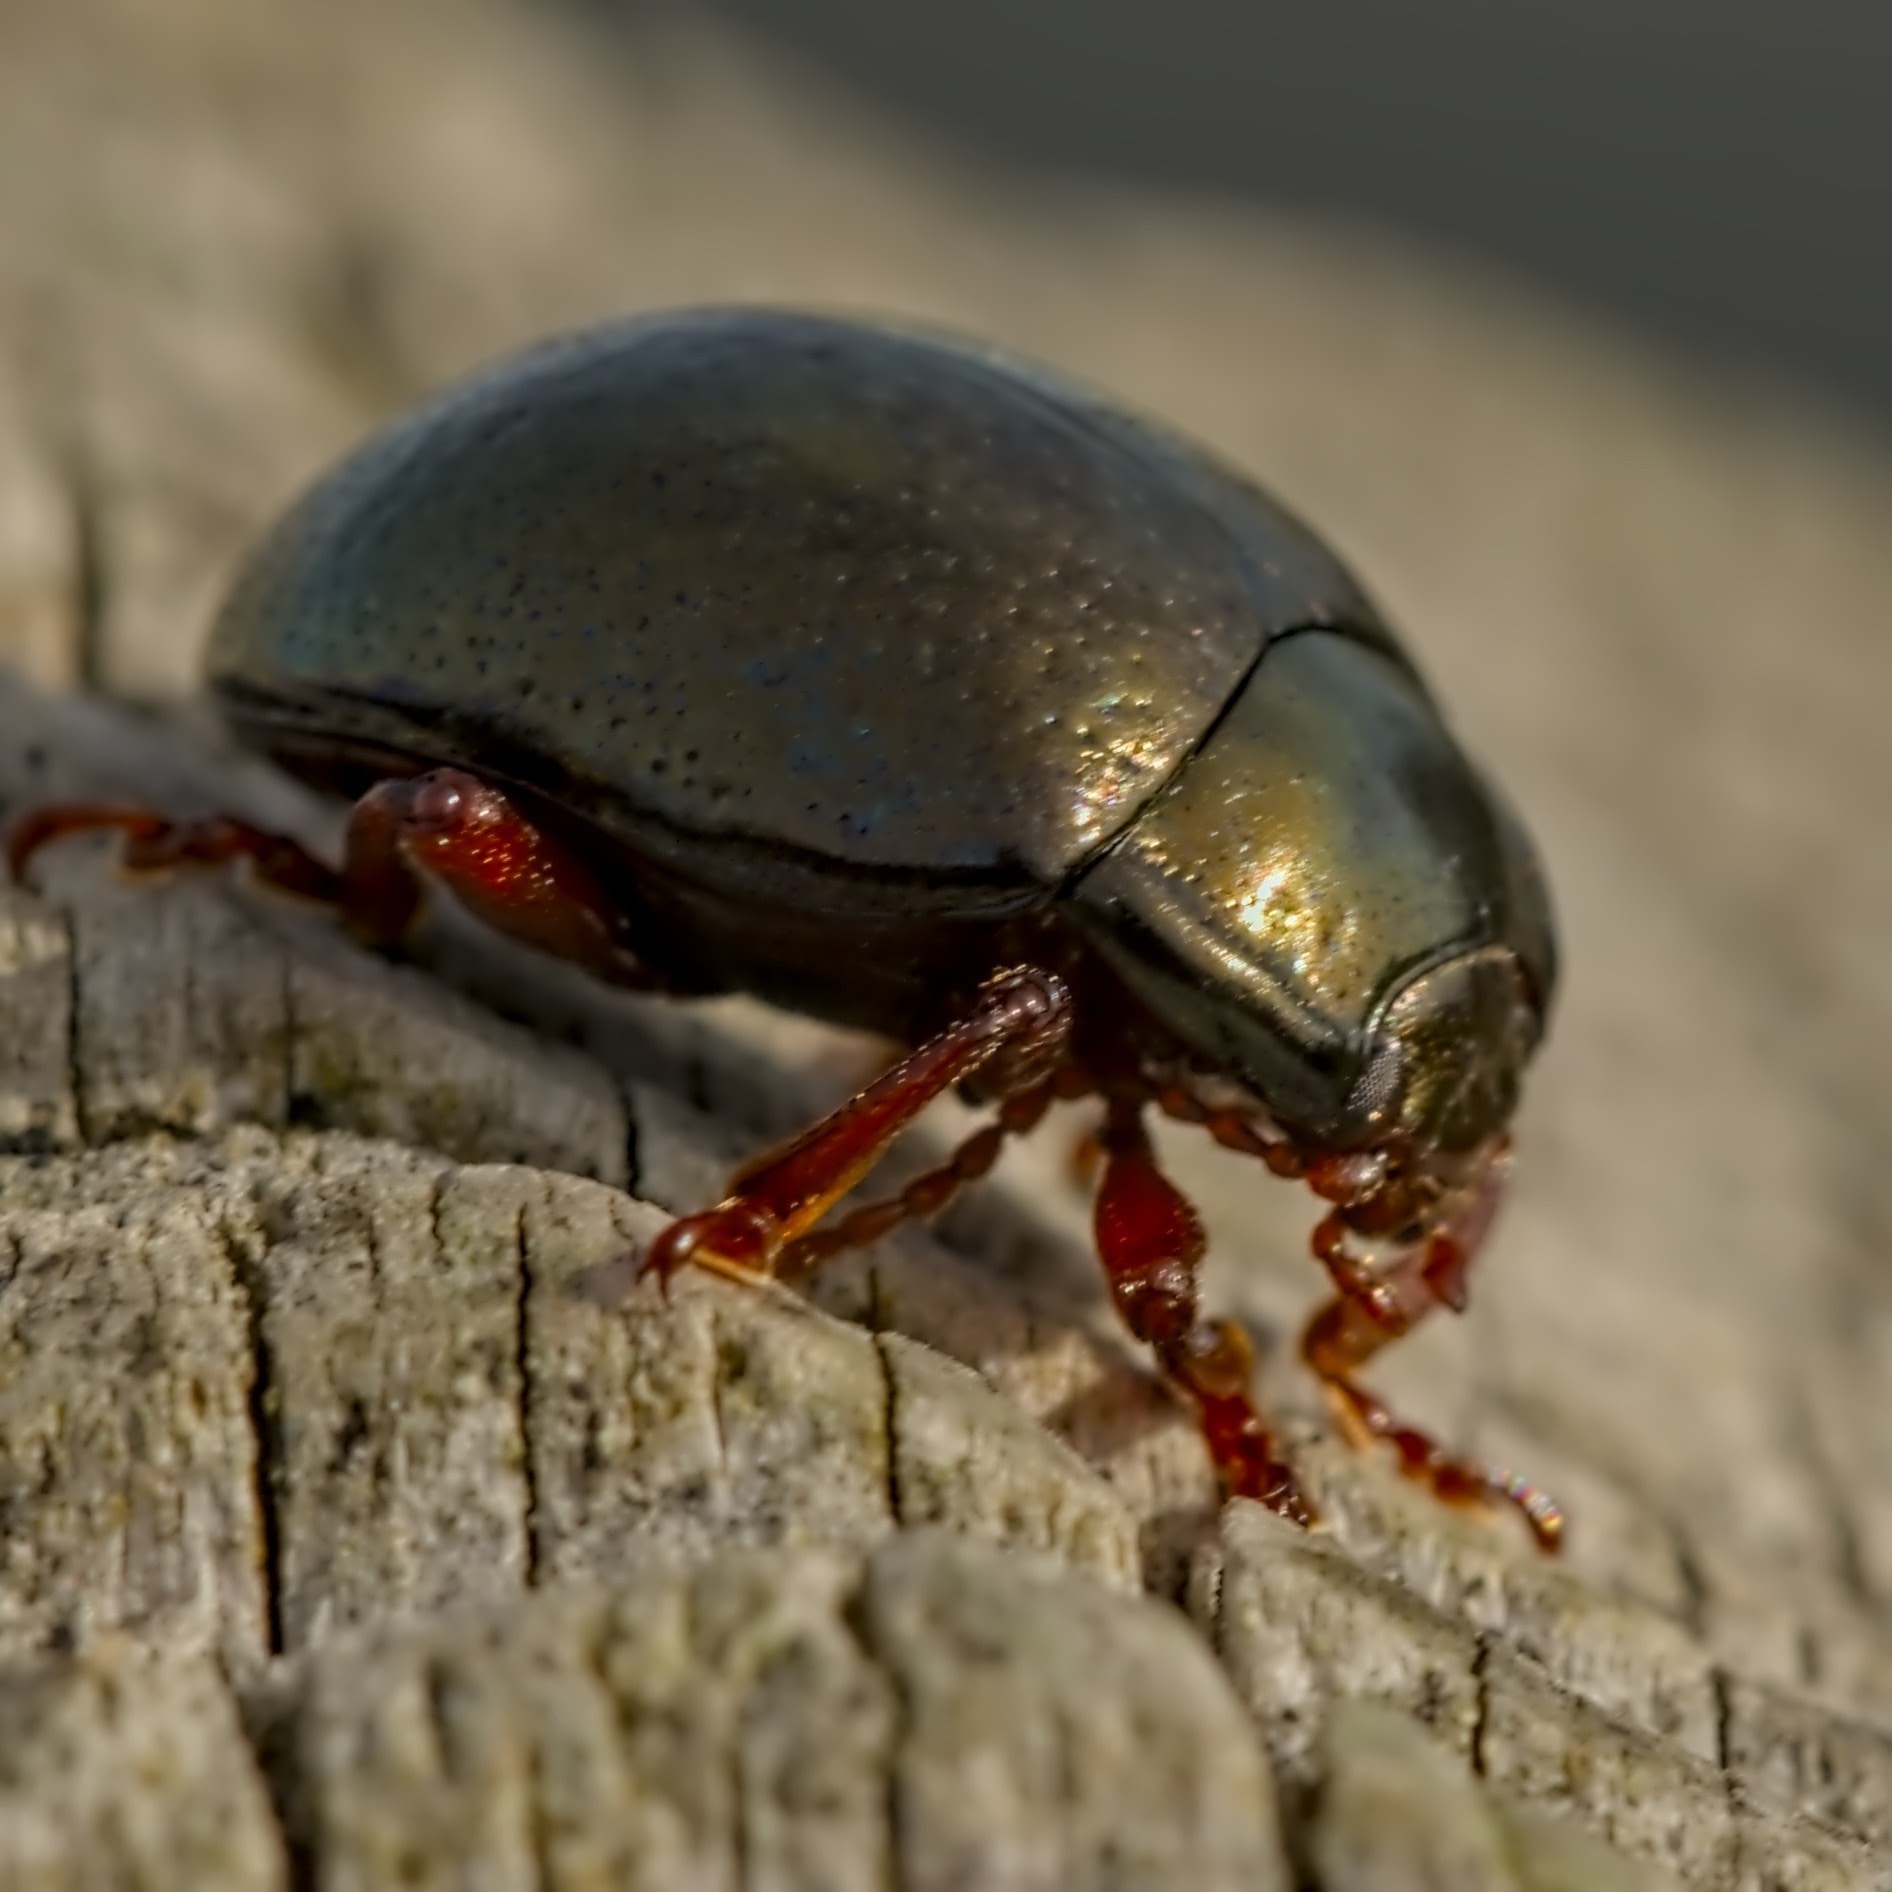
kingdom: Animalia
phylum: Arthropoda
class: Insecta
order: Coleoptera
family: Chrysomelidae
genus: Chrysolina
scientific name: Chrysolina bankii
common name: Leaf beetle
